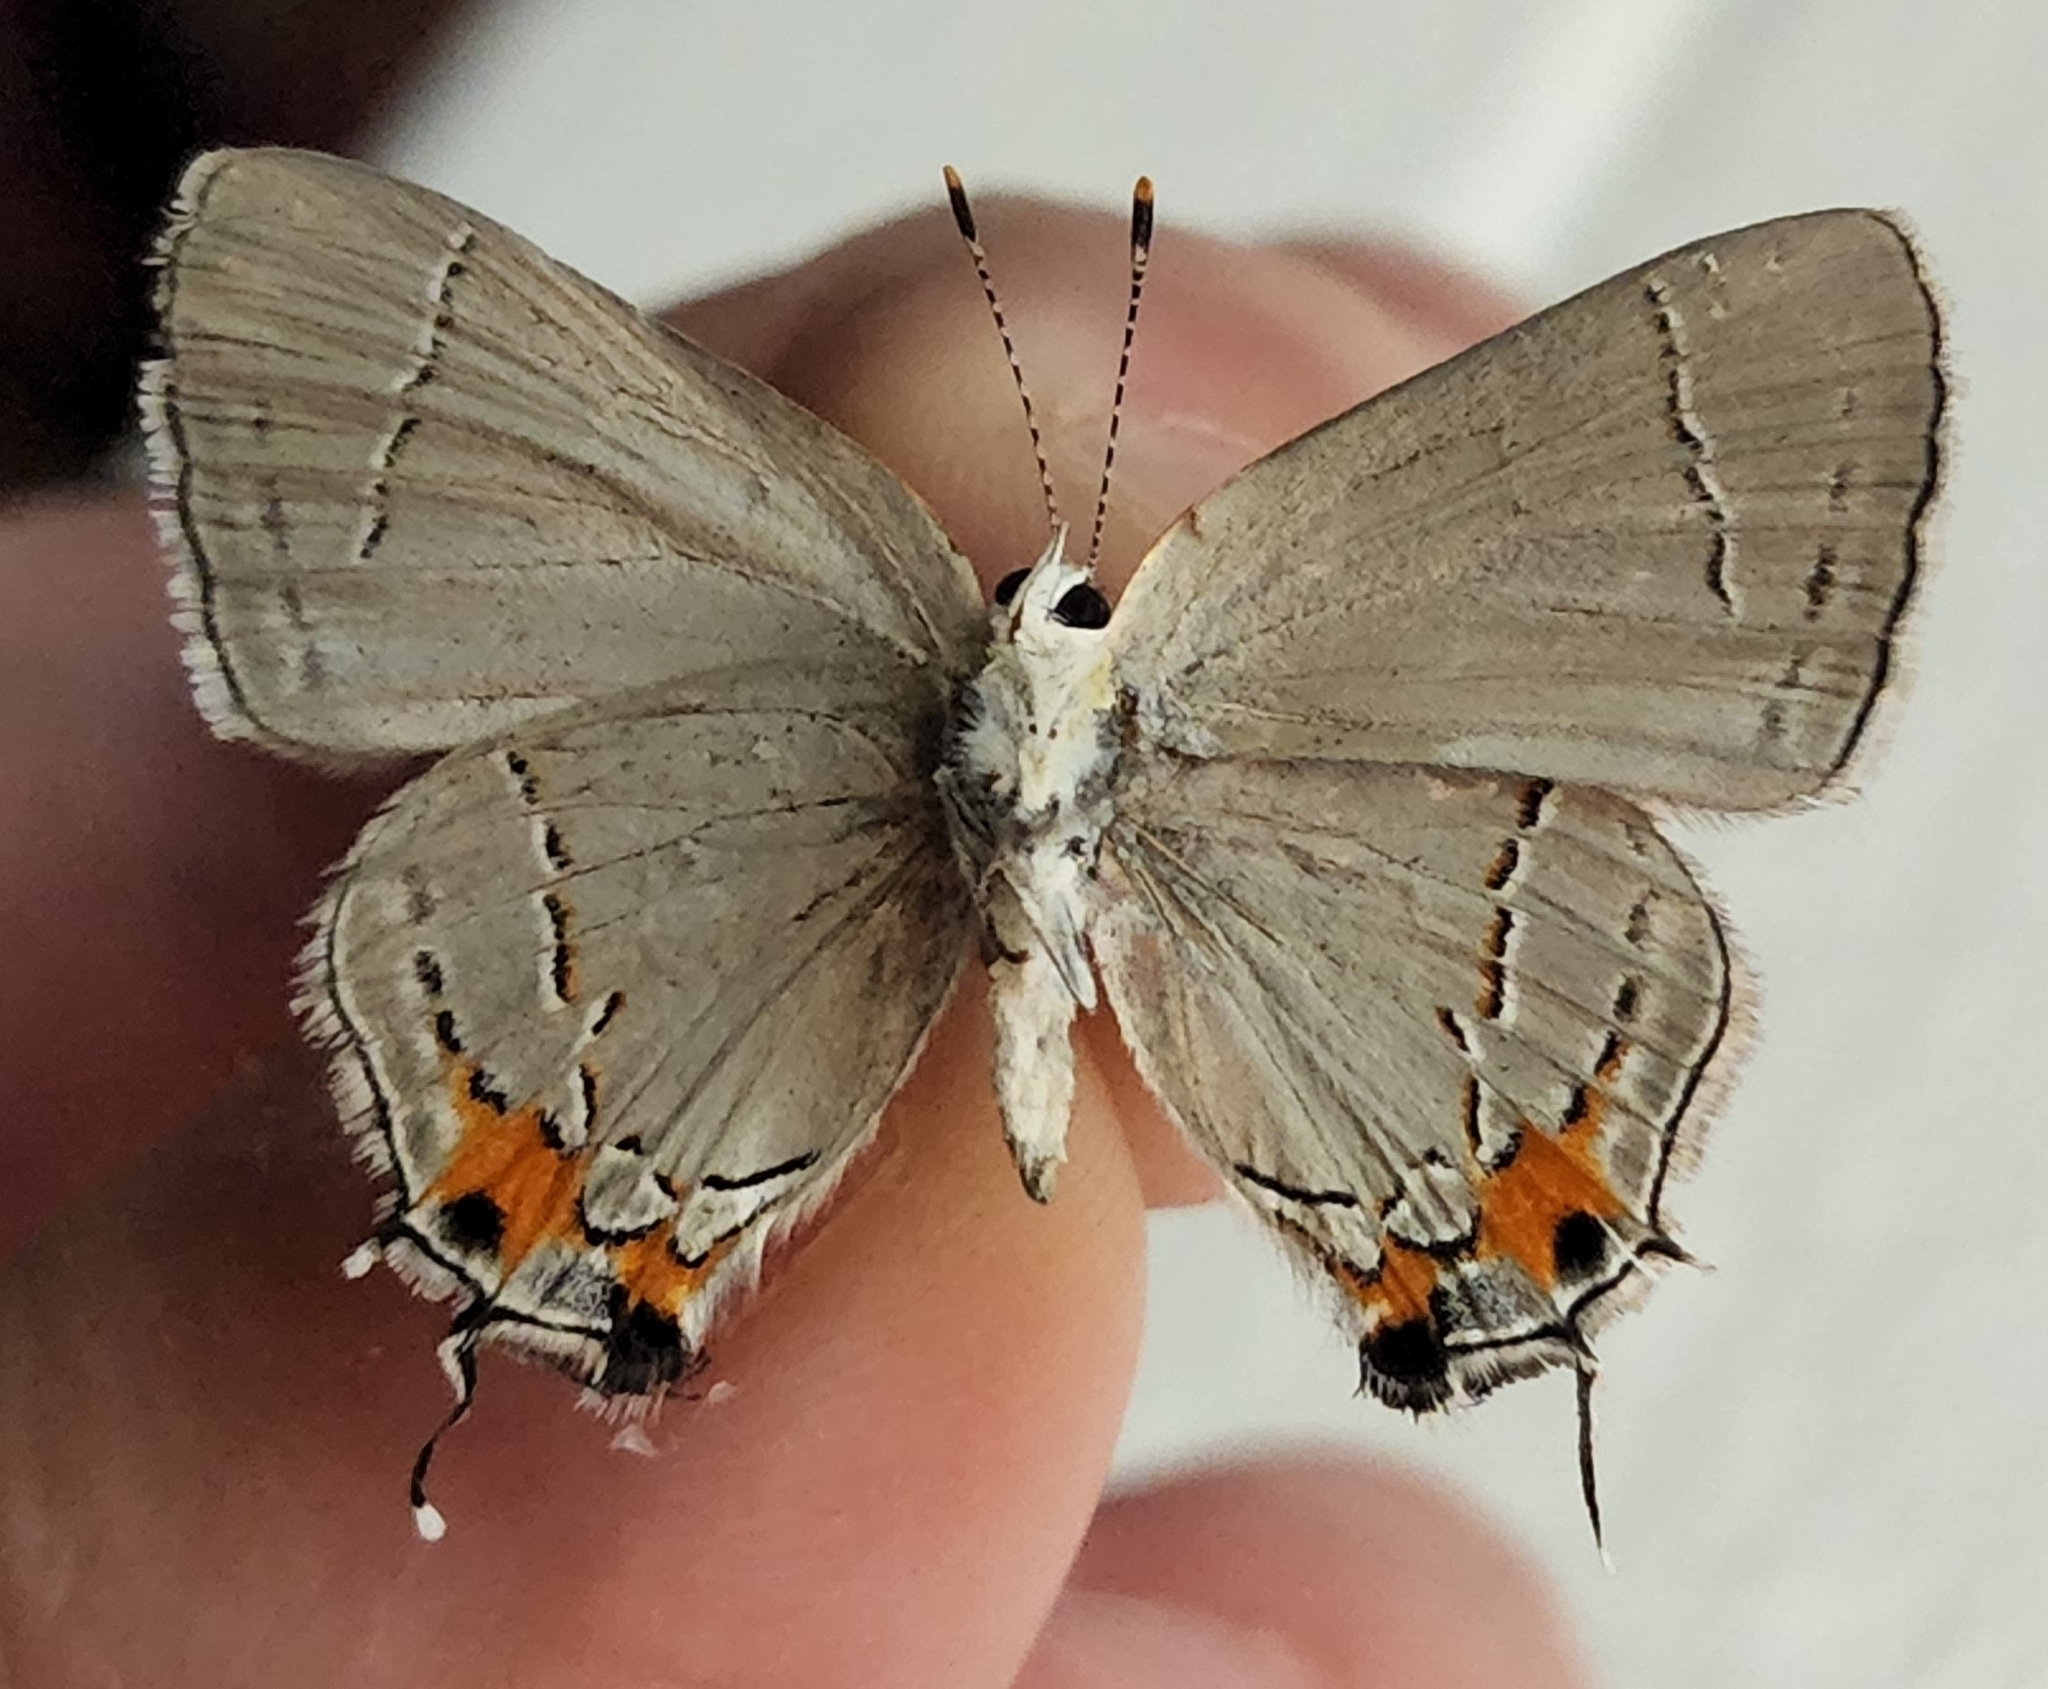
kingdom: Animalia
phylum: Arthropoda
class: Insecta
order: Lepidoptera
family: Lycaenidae
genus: Strymon
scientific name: Strymon melinus
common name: Gray hairstreak
